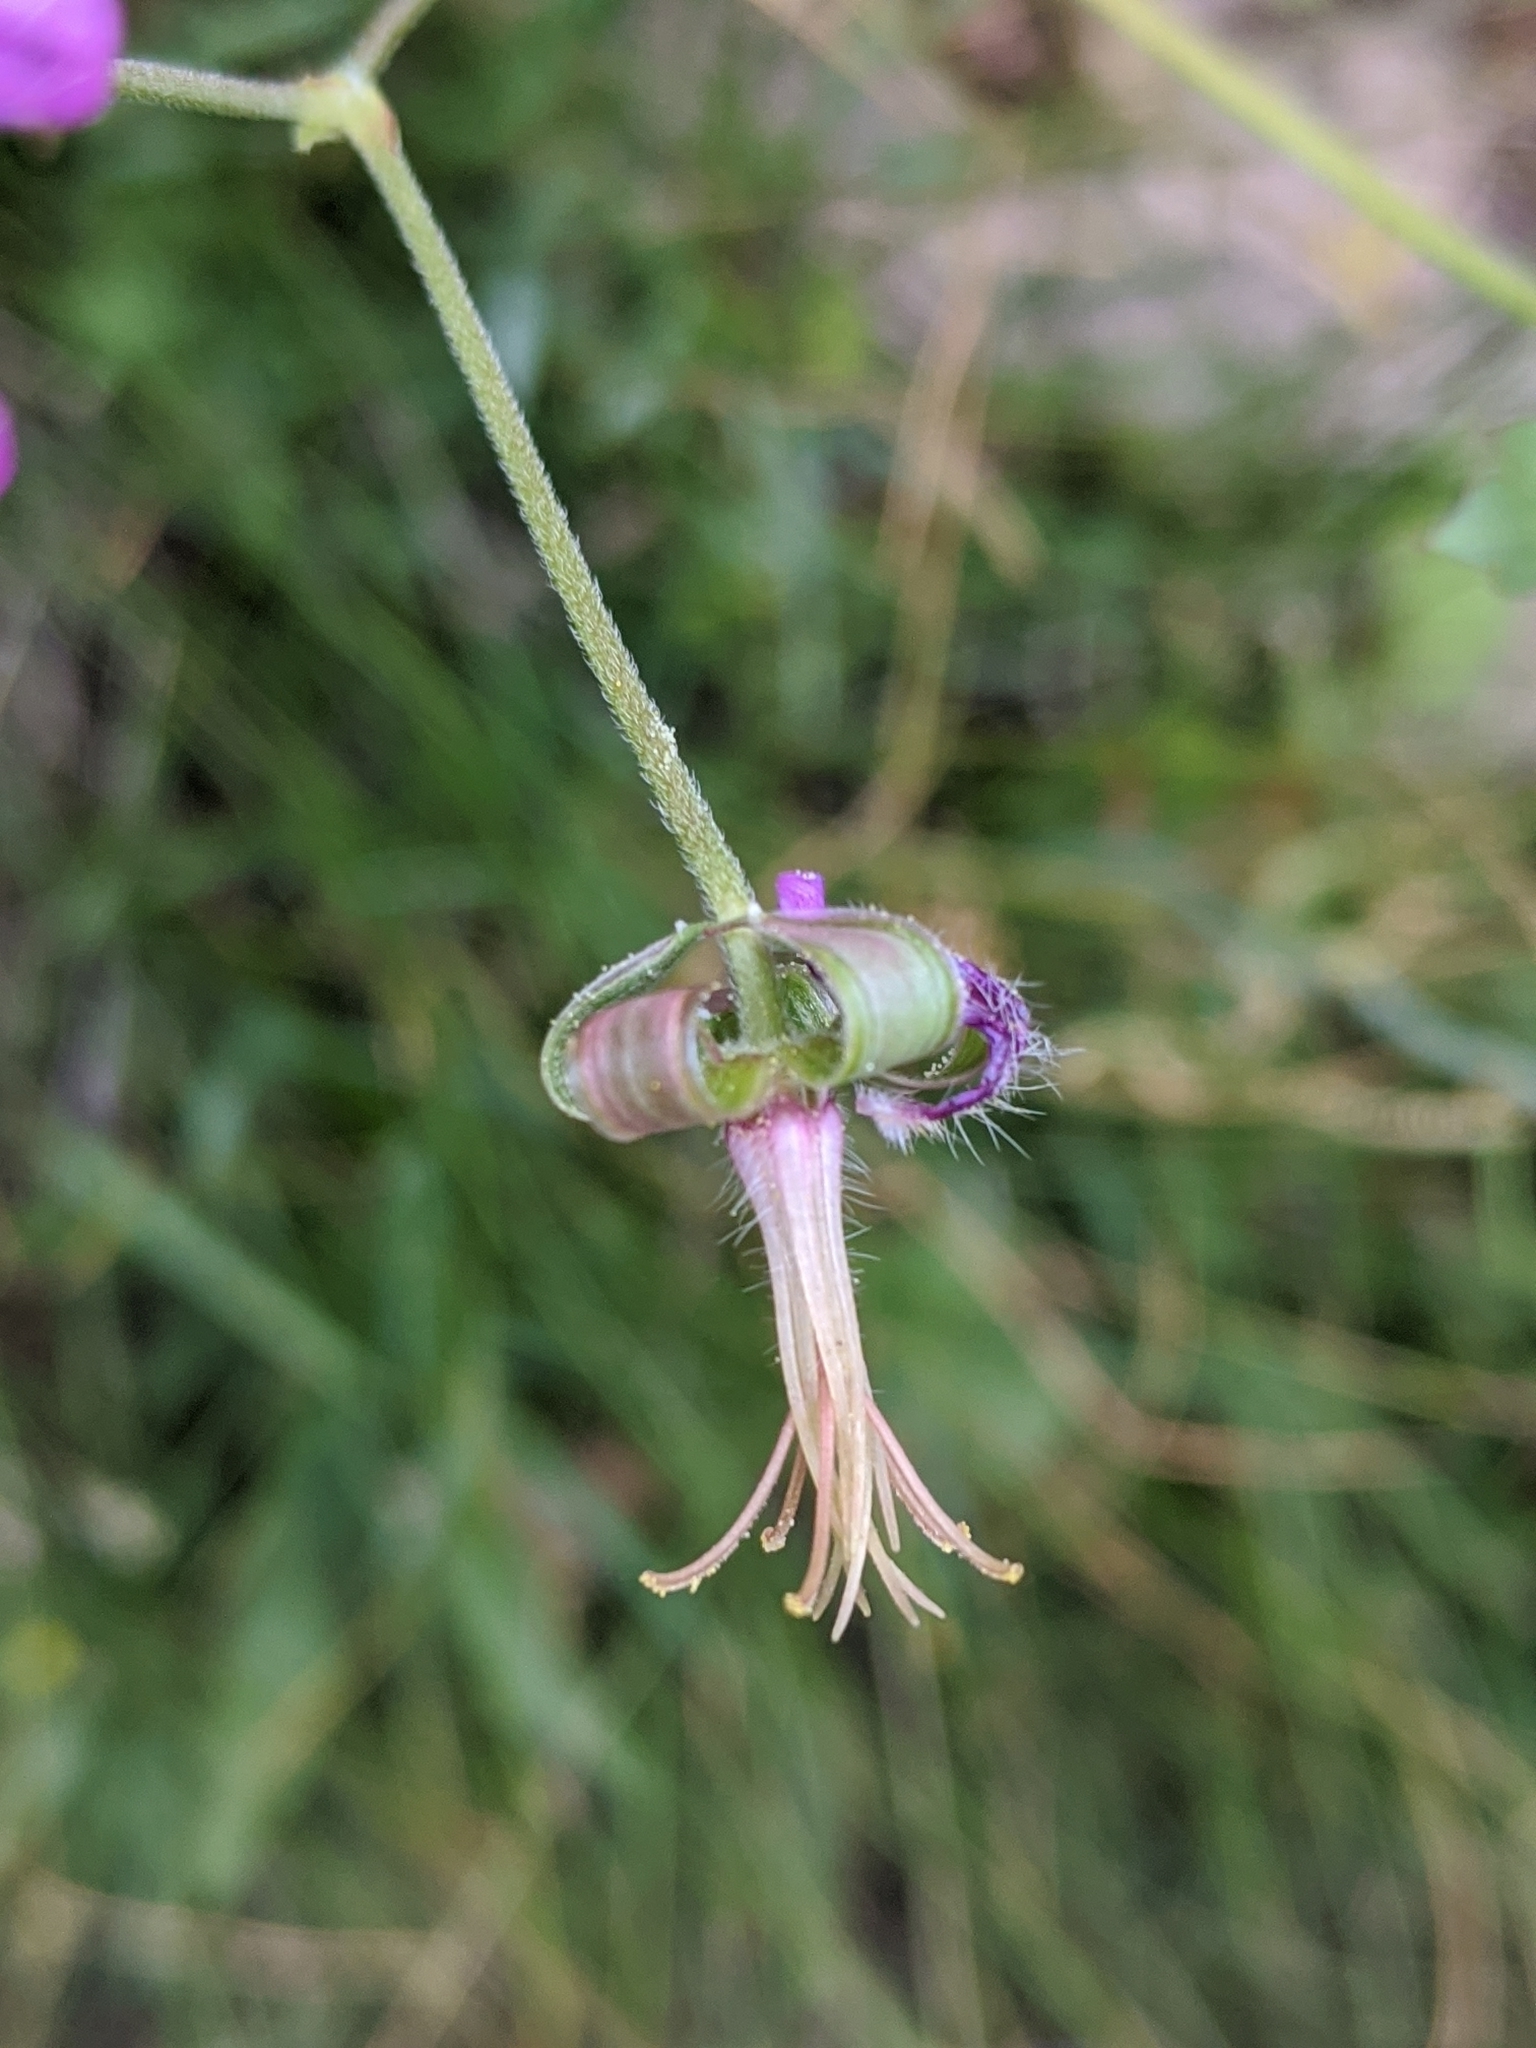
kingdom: Plantae
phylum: Tracheophyta
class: Magnoliopsida
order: Geraniales
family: Geraniaceae
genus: Geranium
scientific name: Geranium caespitosum
